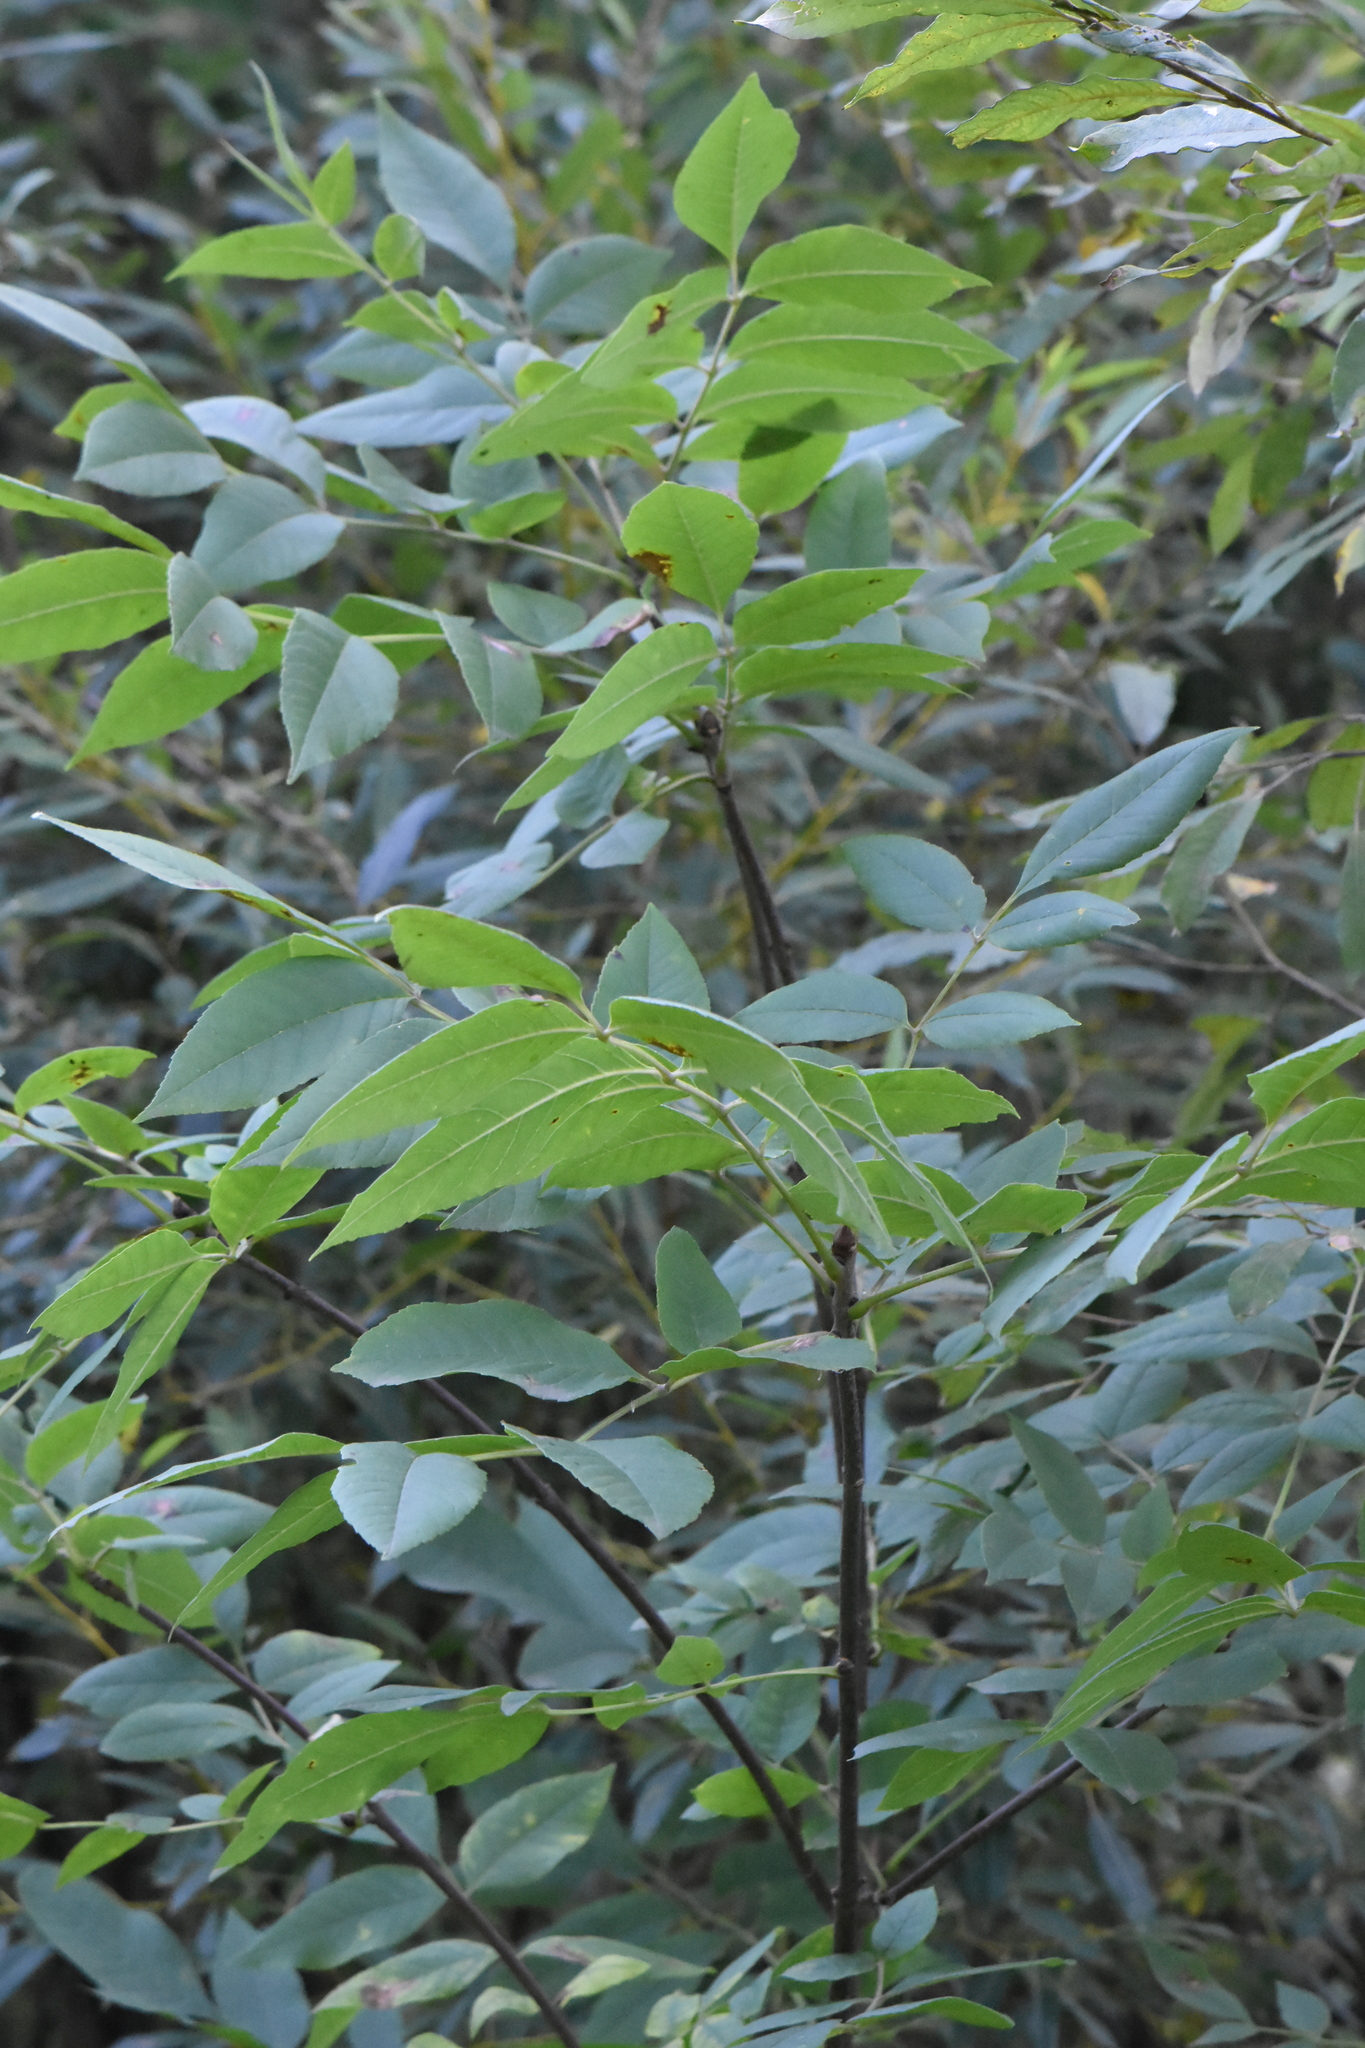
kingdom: Plantae
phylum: Tracheophyta
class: Magnoliopsida
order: Lamiales
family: Oleaceae
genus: Fraxinus
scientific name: Fraxinus pennsylvanica
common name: Green ash
